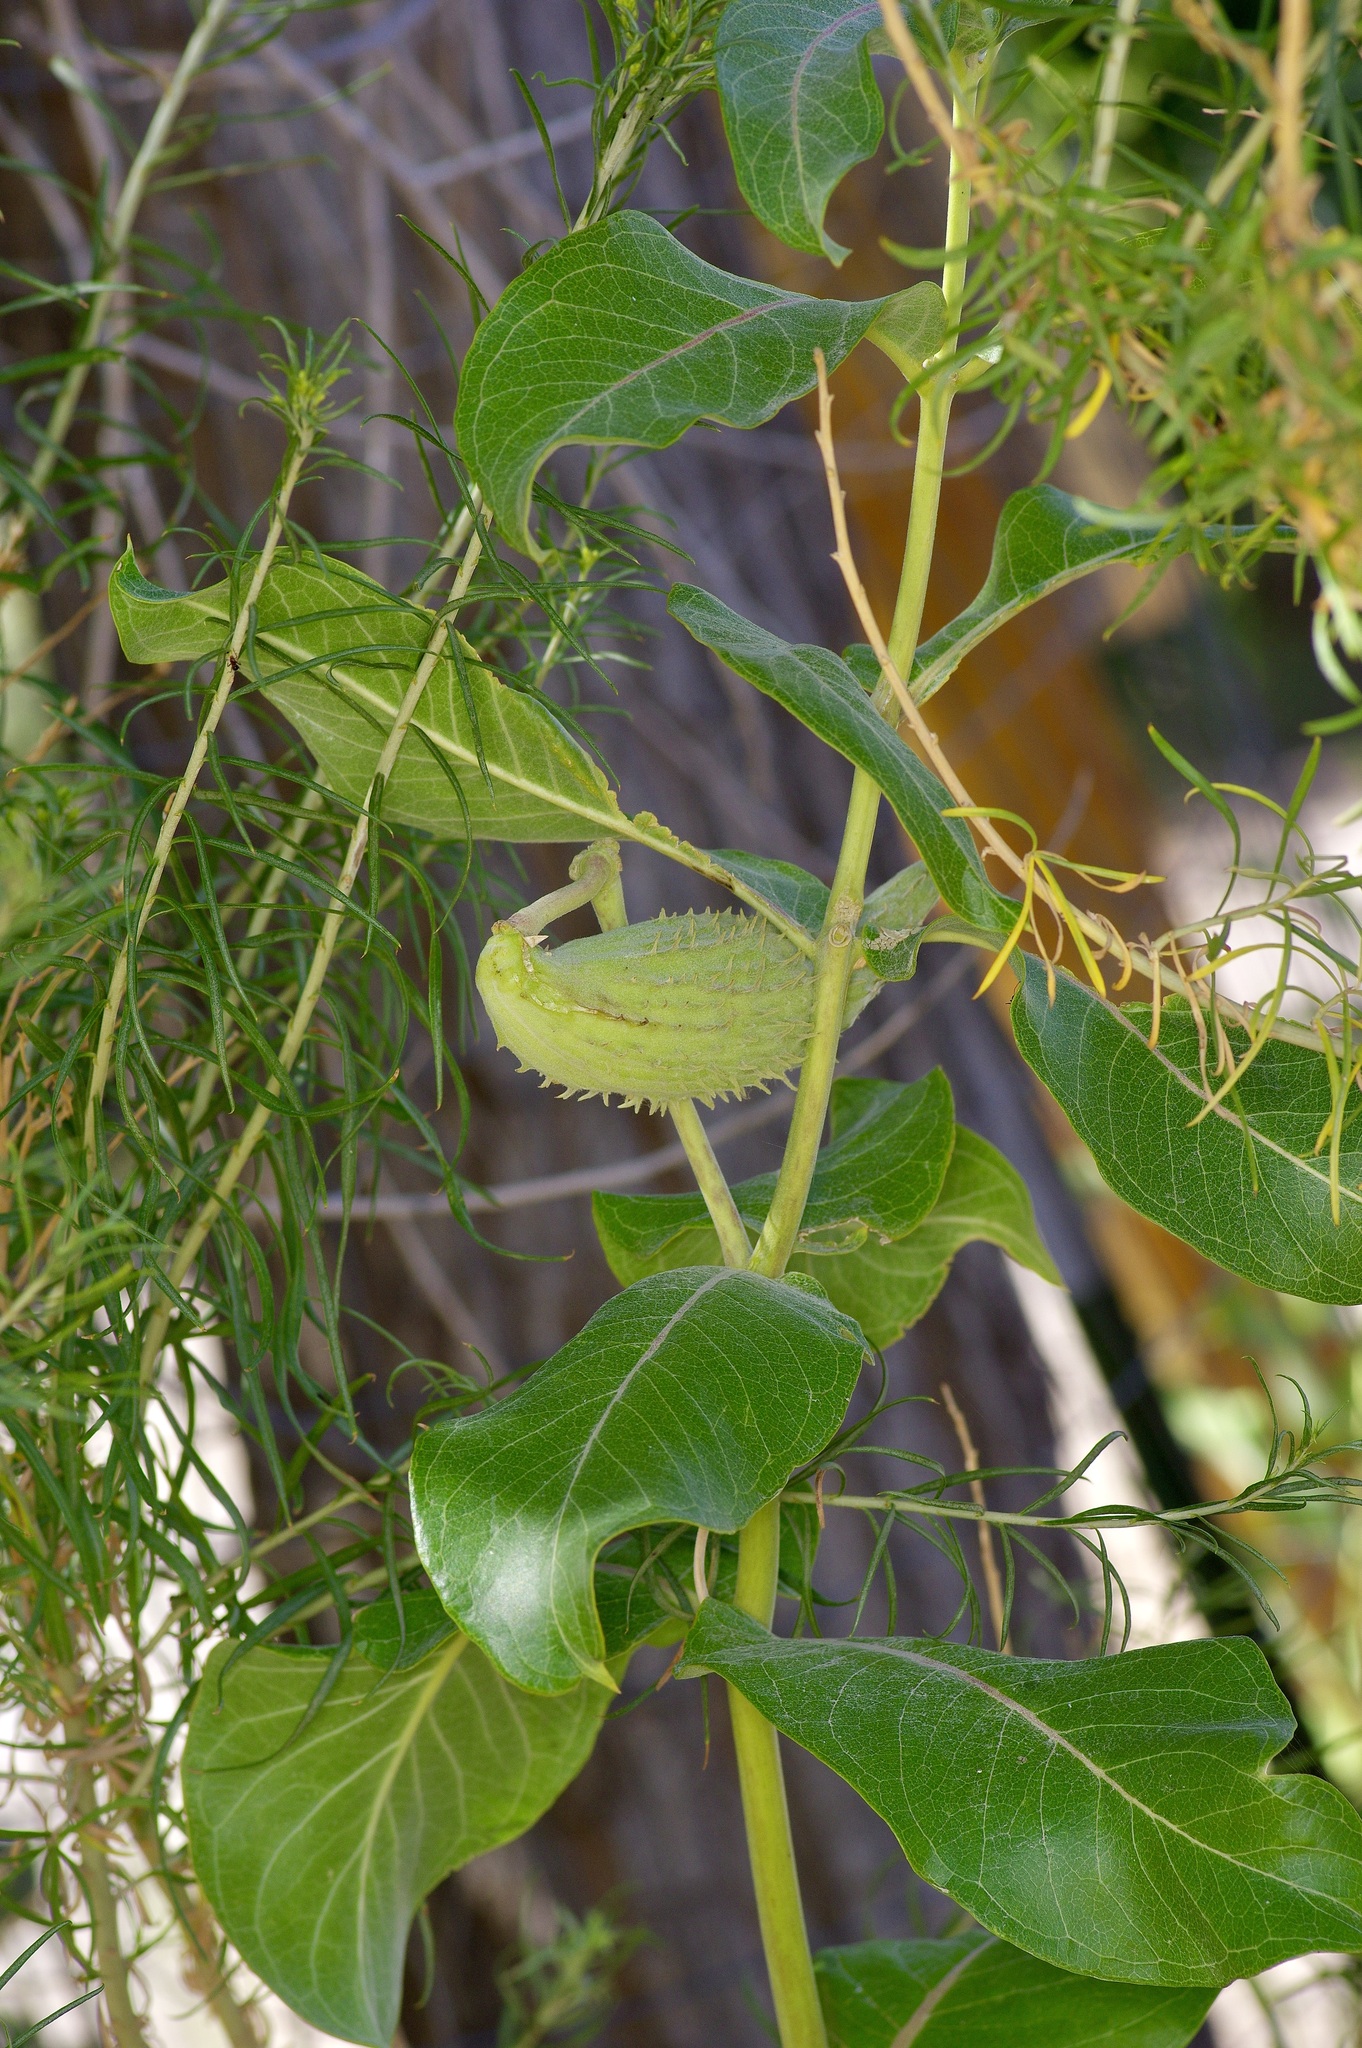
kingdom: Plantae
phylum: Tracheophyta
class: Magnoliopsida
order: Gentianales
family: Apocynaceae
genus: Asclepias
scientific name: Asclepias speciosa
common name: Showy milkweed
